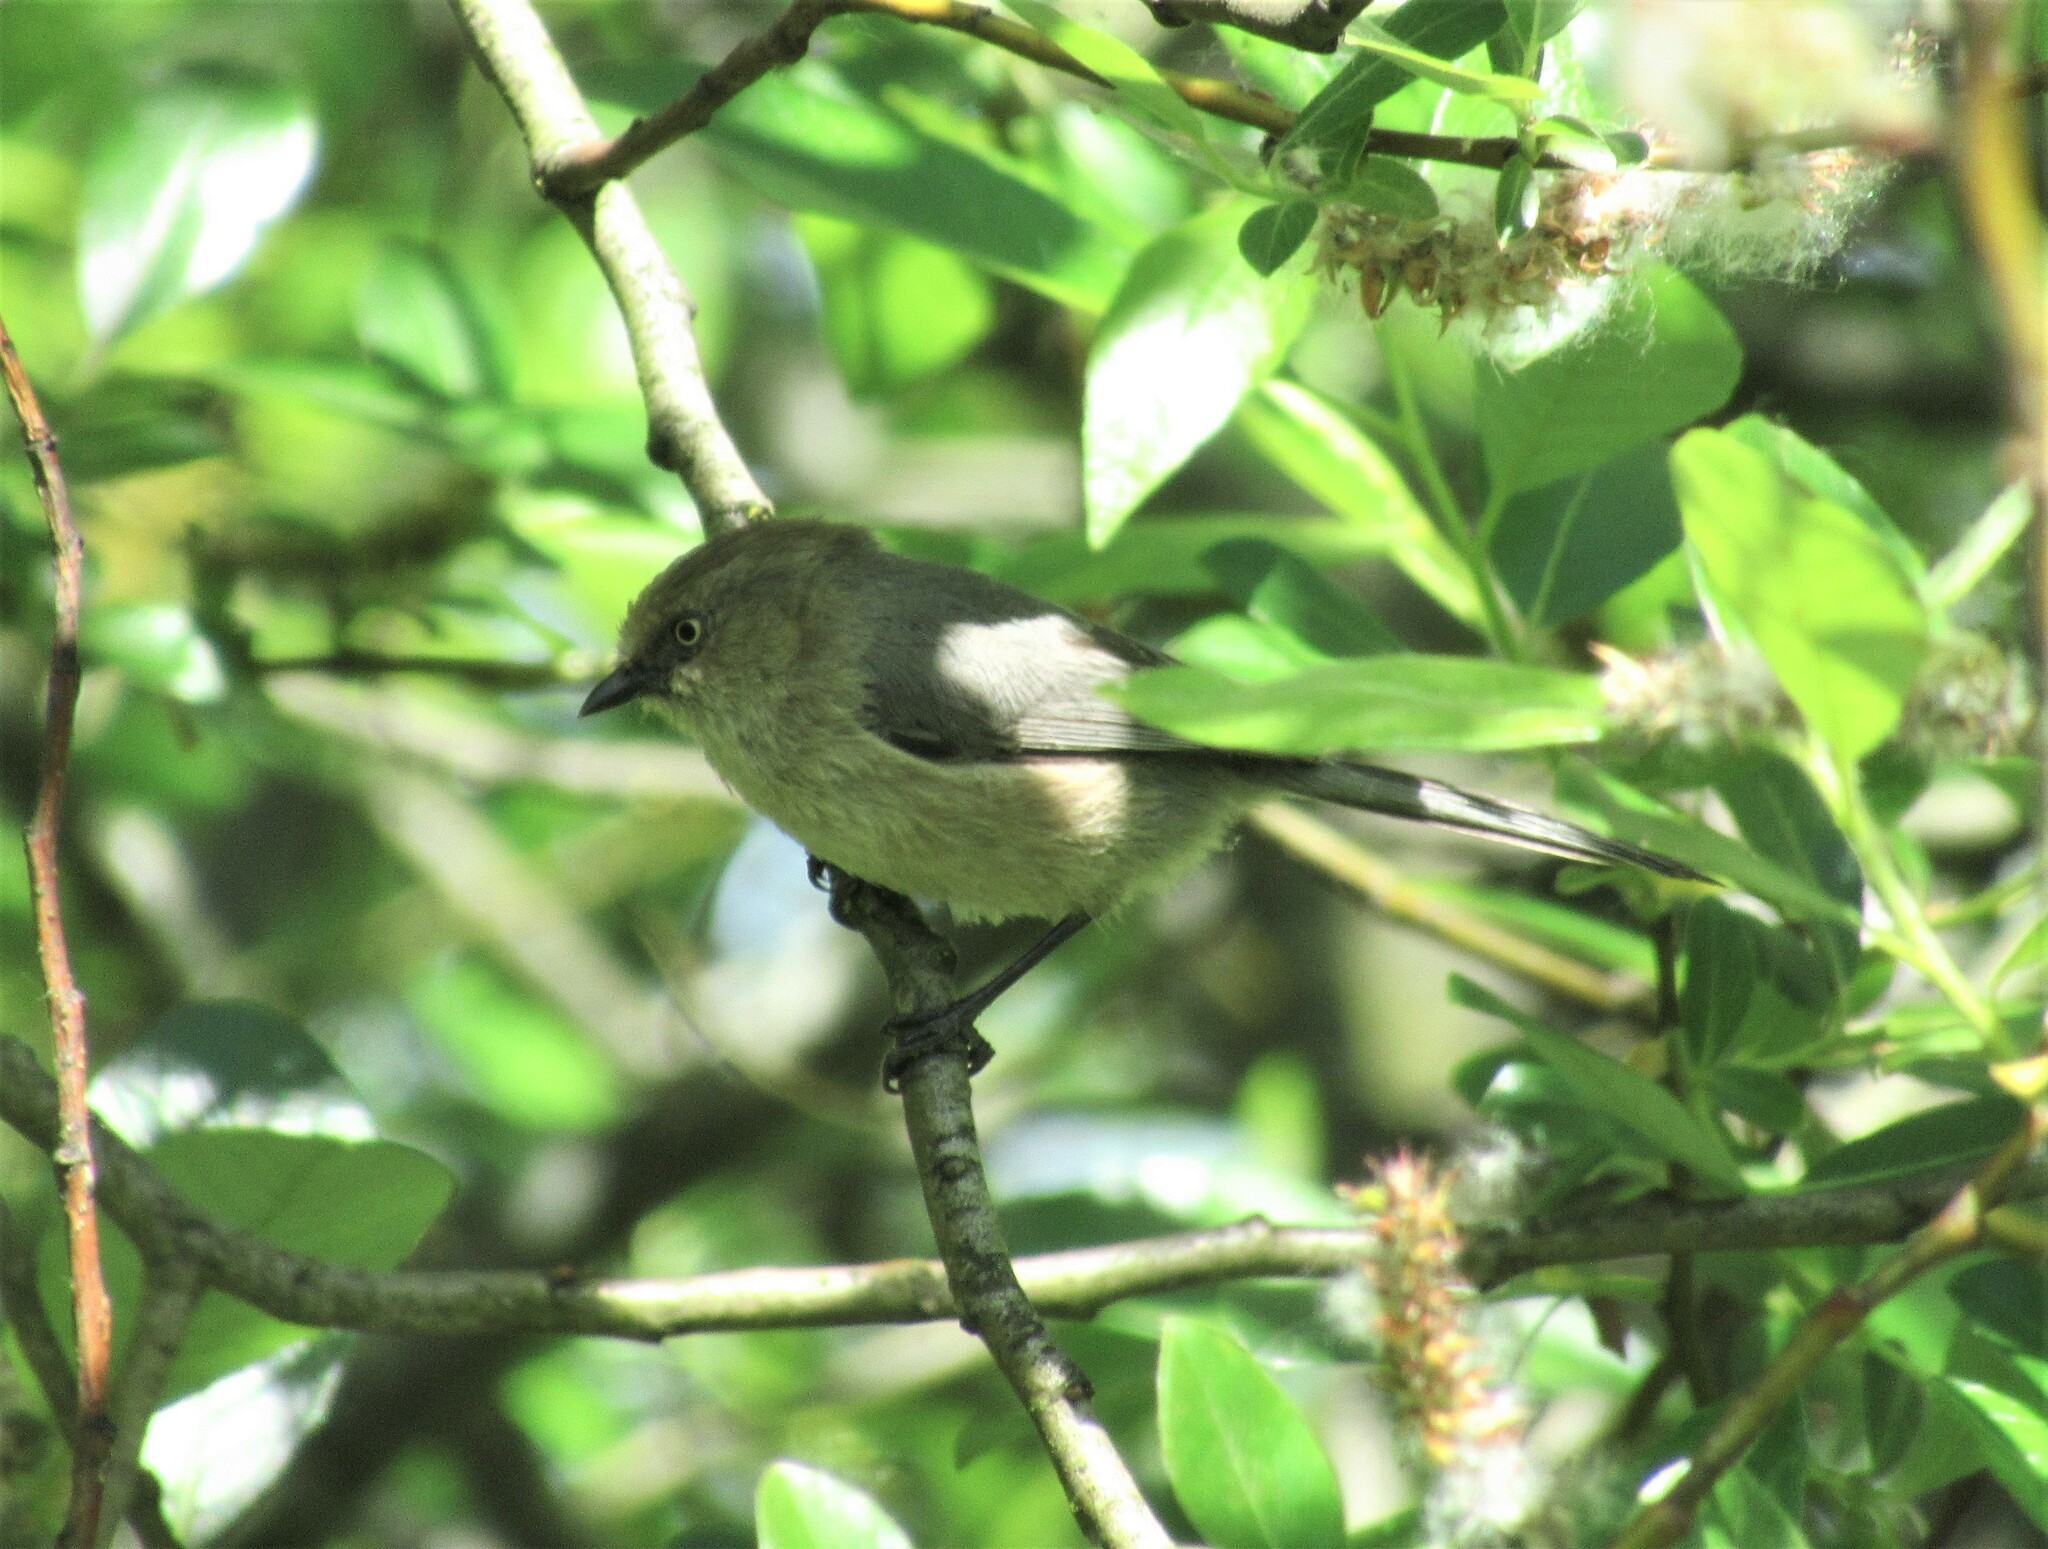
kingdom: Animalia
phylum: Chordata
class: Aves
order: Passeriformes
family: Aegithalidae
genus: Psaltriparus
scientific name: Psaltriparus minimus
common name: American bushtit
